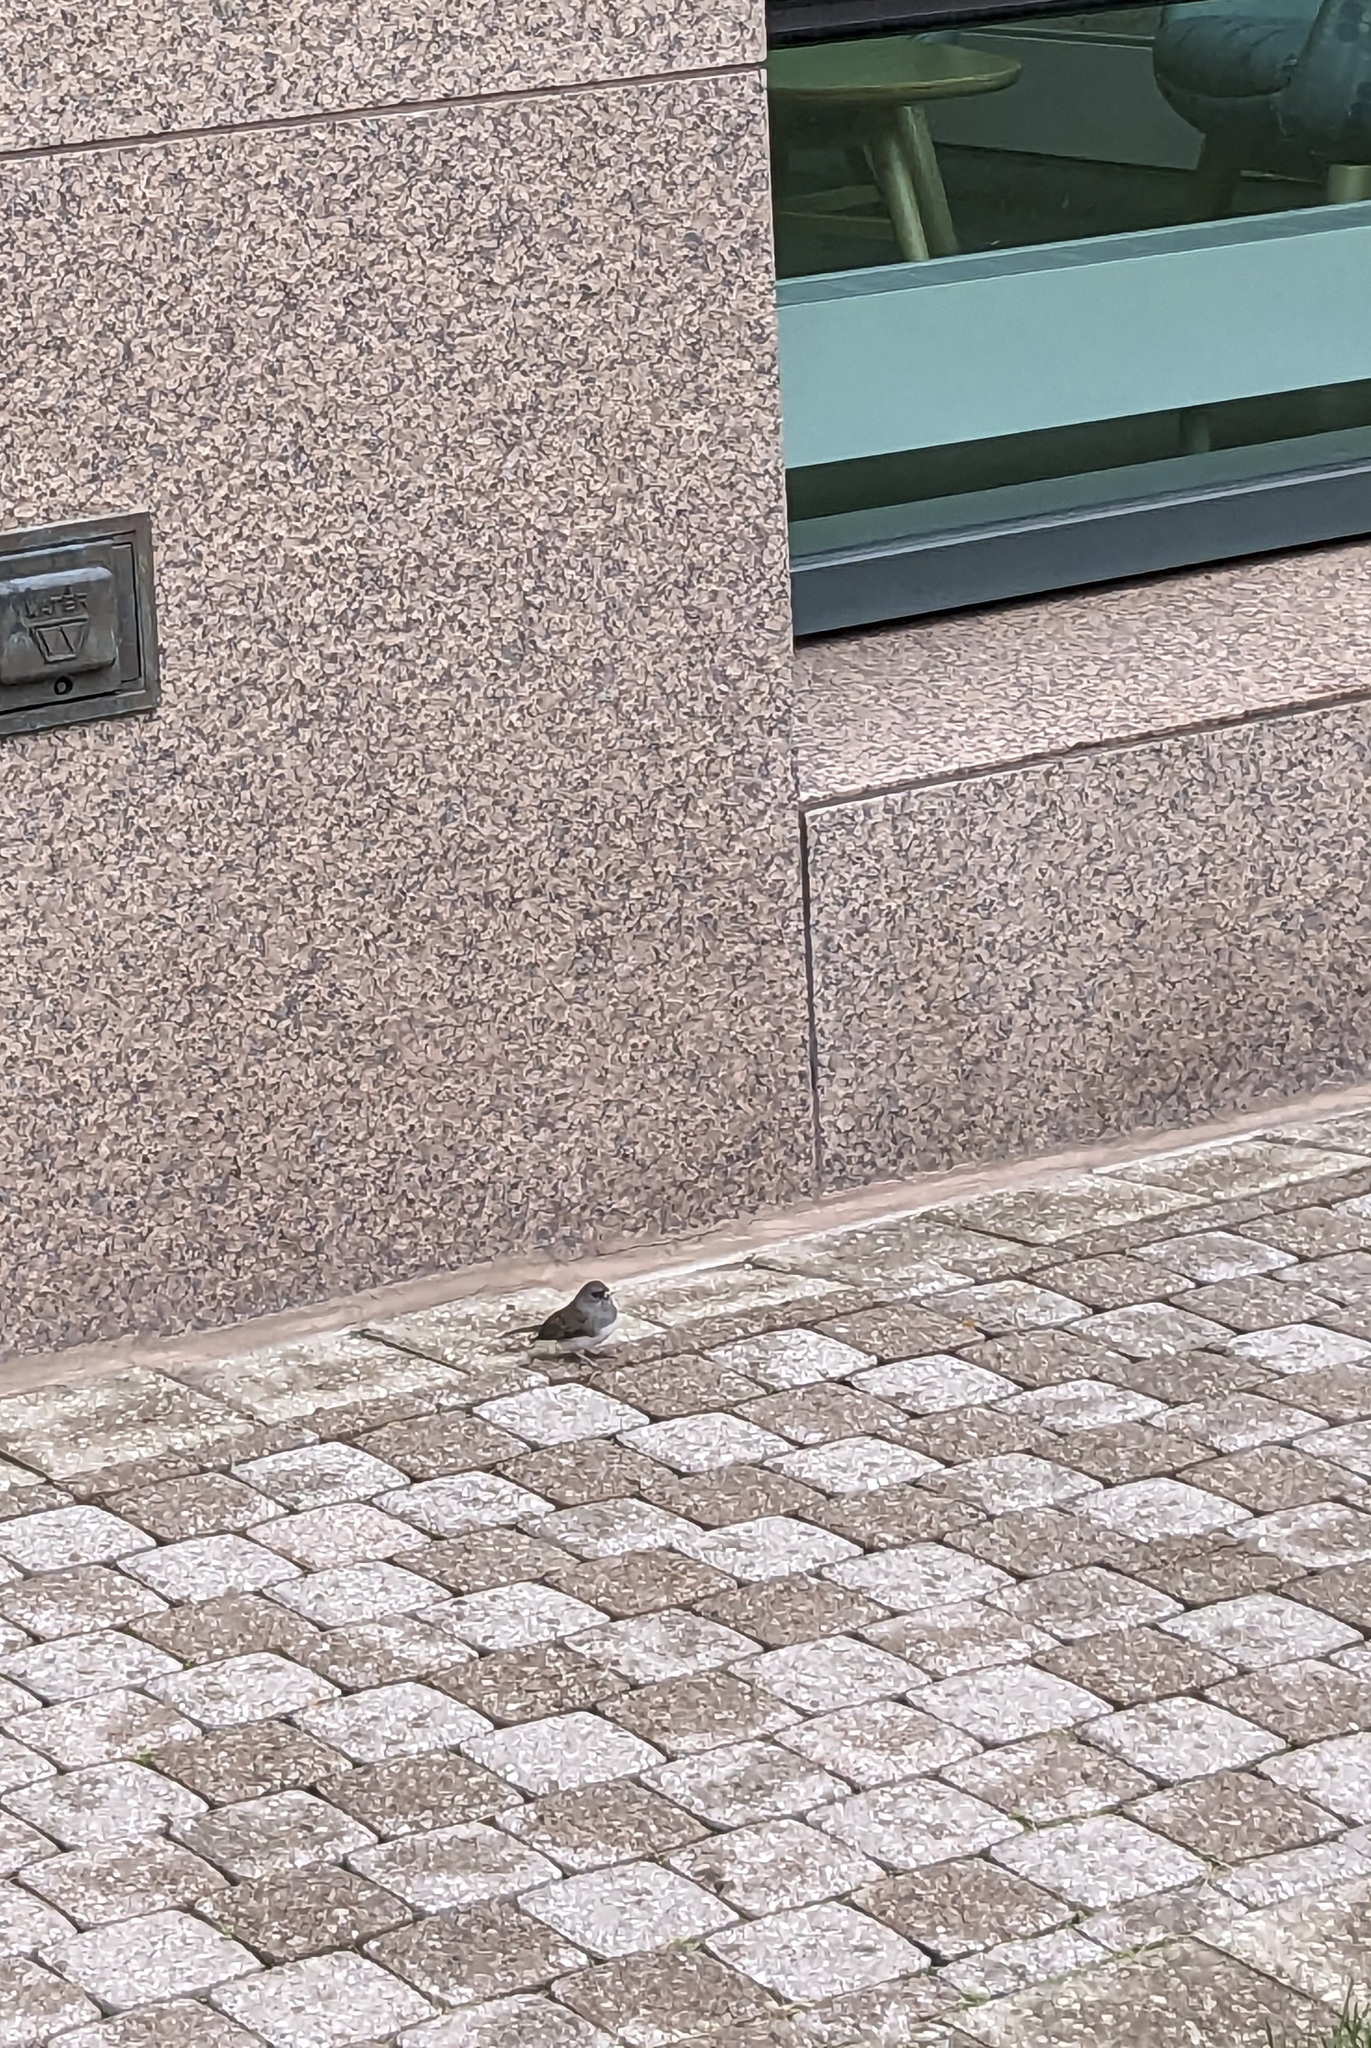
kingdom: Animalia
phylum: Chordata
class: Aves
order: Passeriformes
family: Passerellidae
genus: Junco
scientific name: Junco hyemalis
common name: Dark-eyed junco
